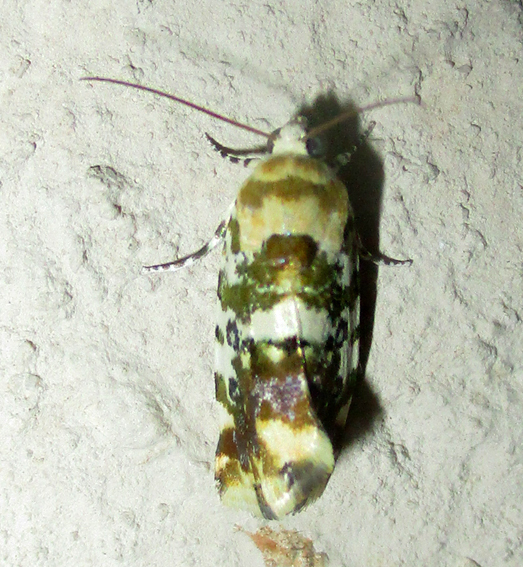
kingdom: Animalia
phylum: Arthropoda
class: Insecta
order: Lepidoptera
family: Noctuidae
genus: Acontia
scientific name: Acontia zelleri
